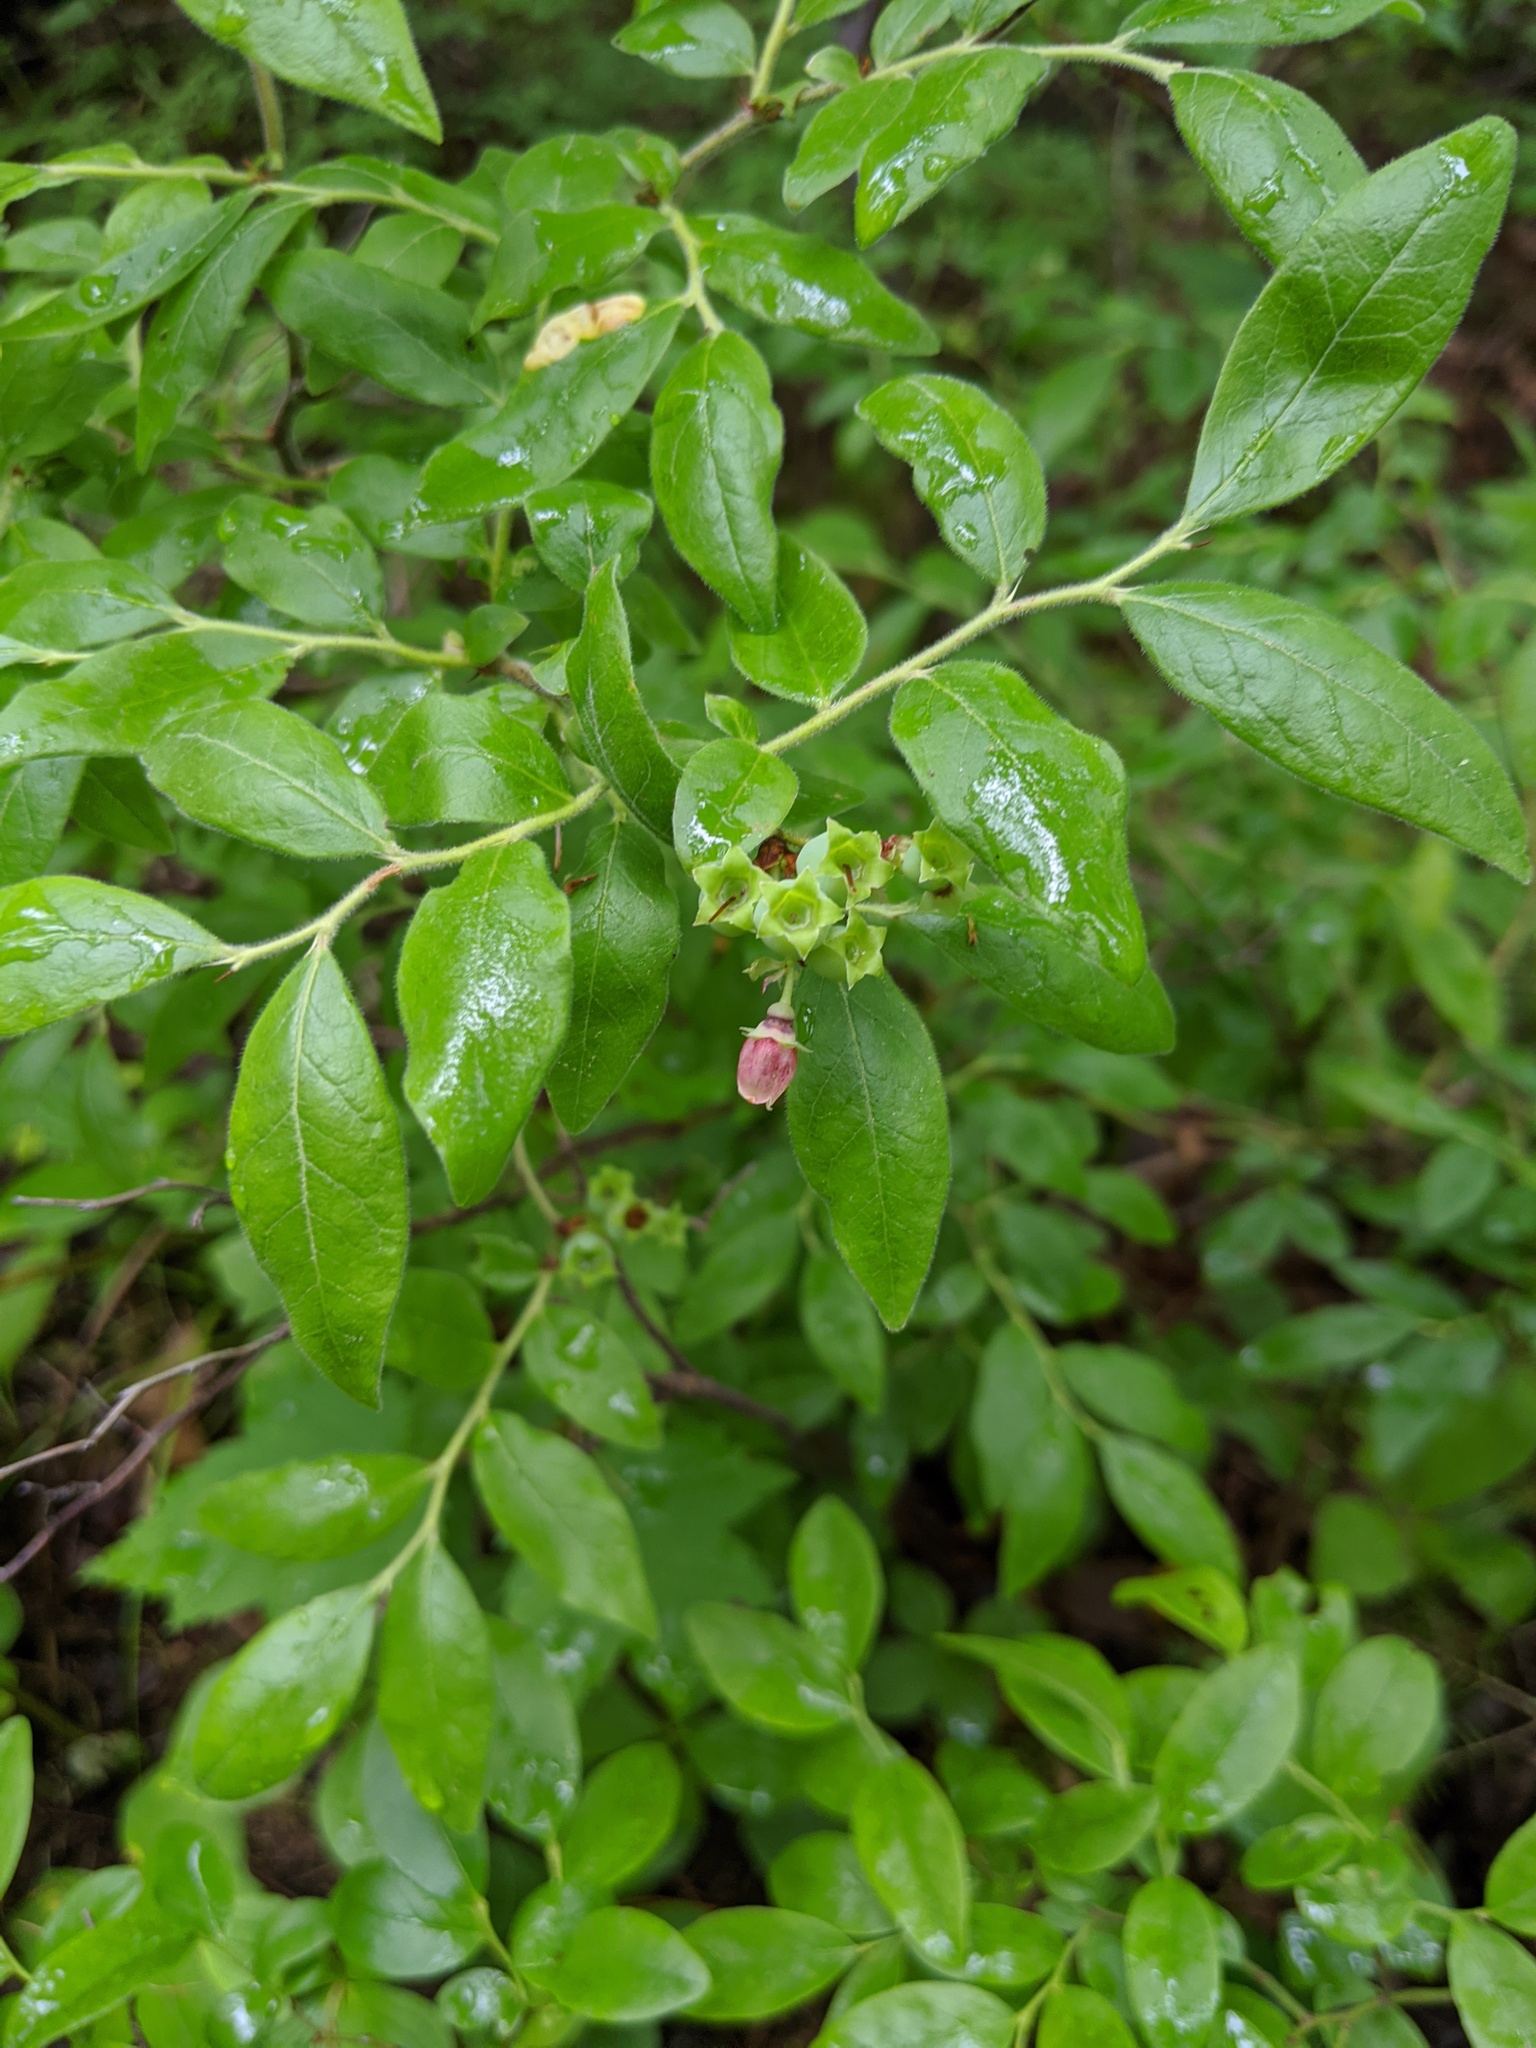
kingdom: Plantae
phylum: Tracheophyta
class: Magnoliopsida
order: Ericales
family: Ericaceae
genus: Vaccinium
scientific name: Vaccinium myrtilloides
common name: Canada blueberry
